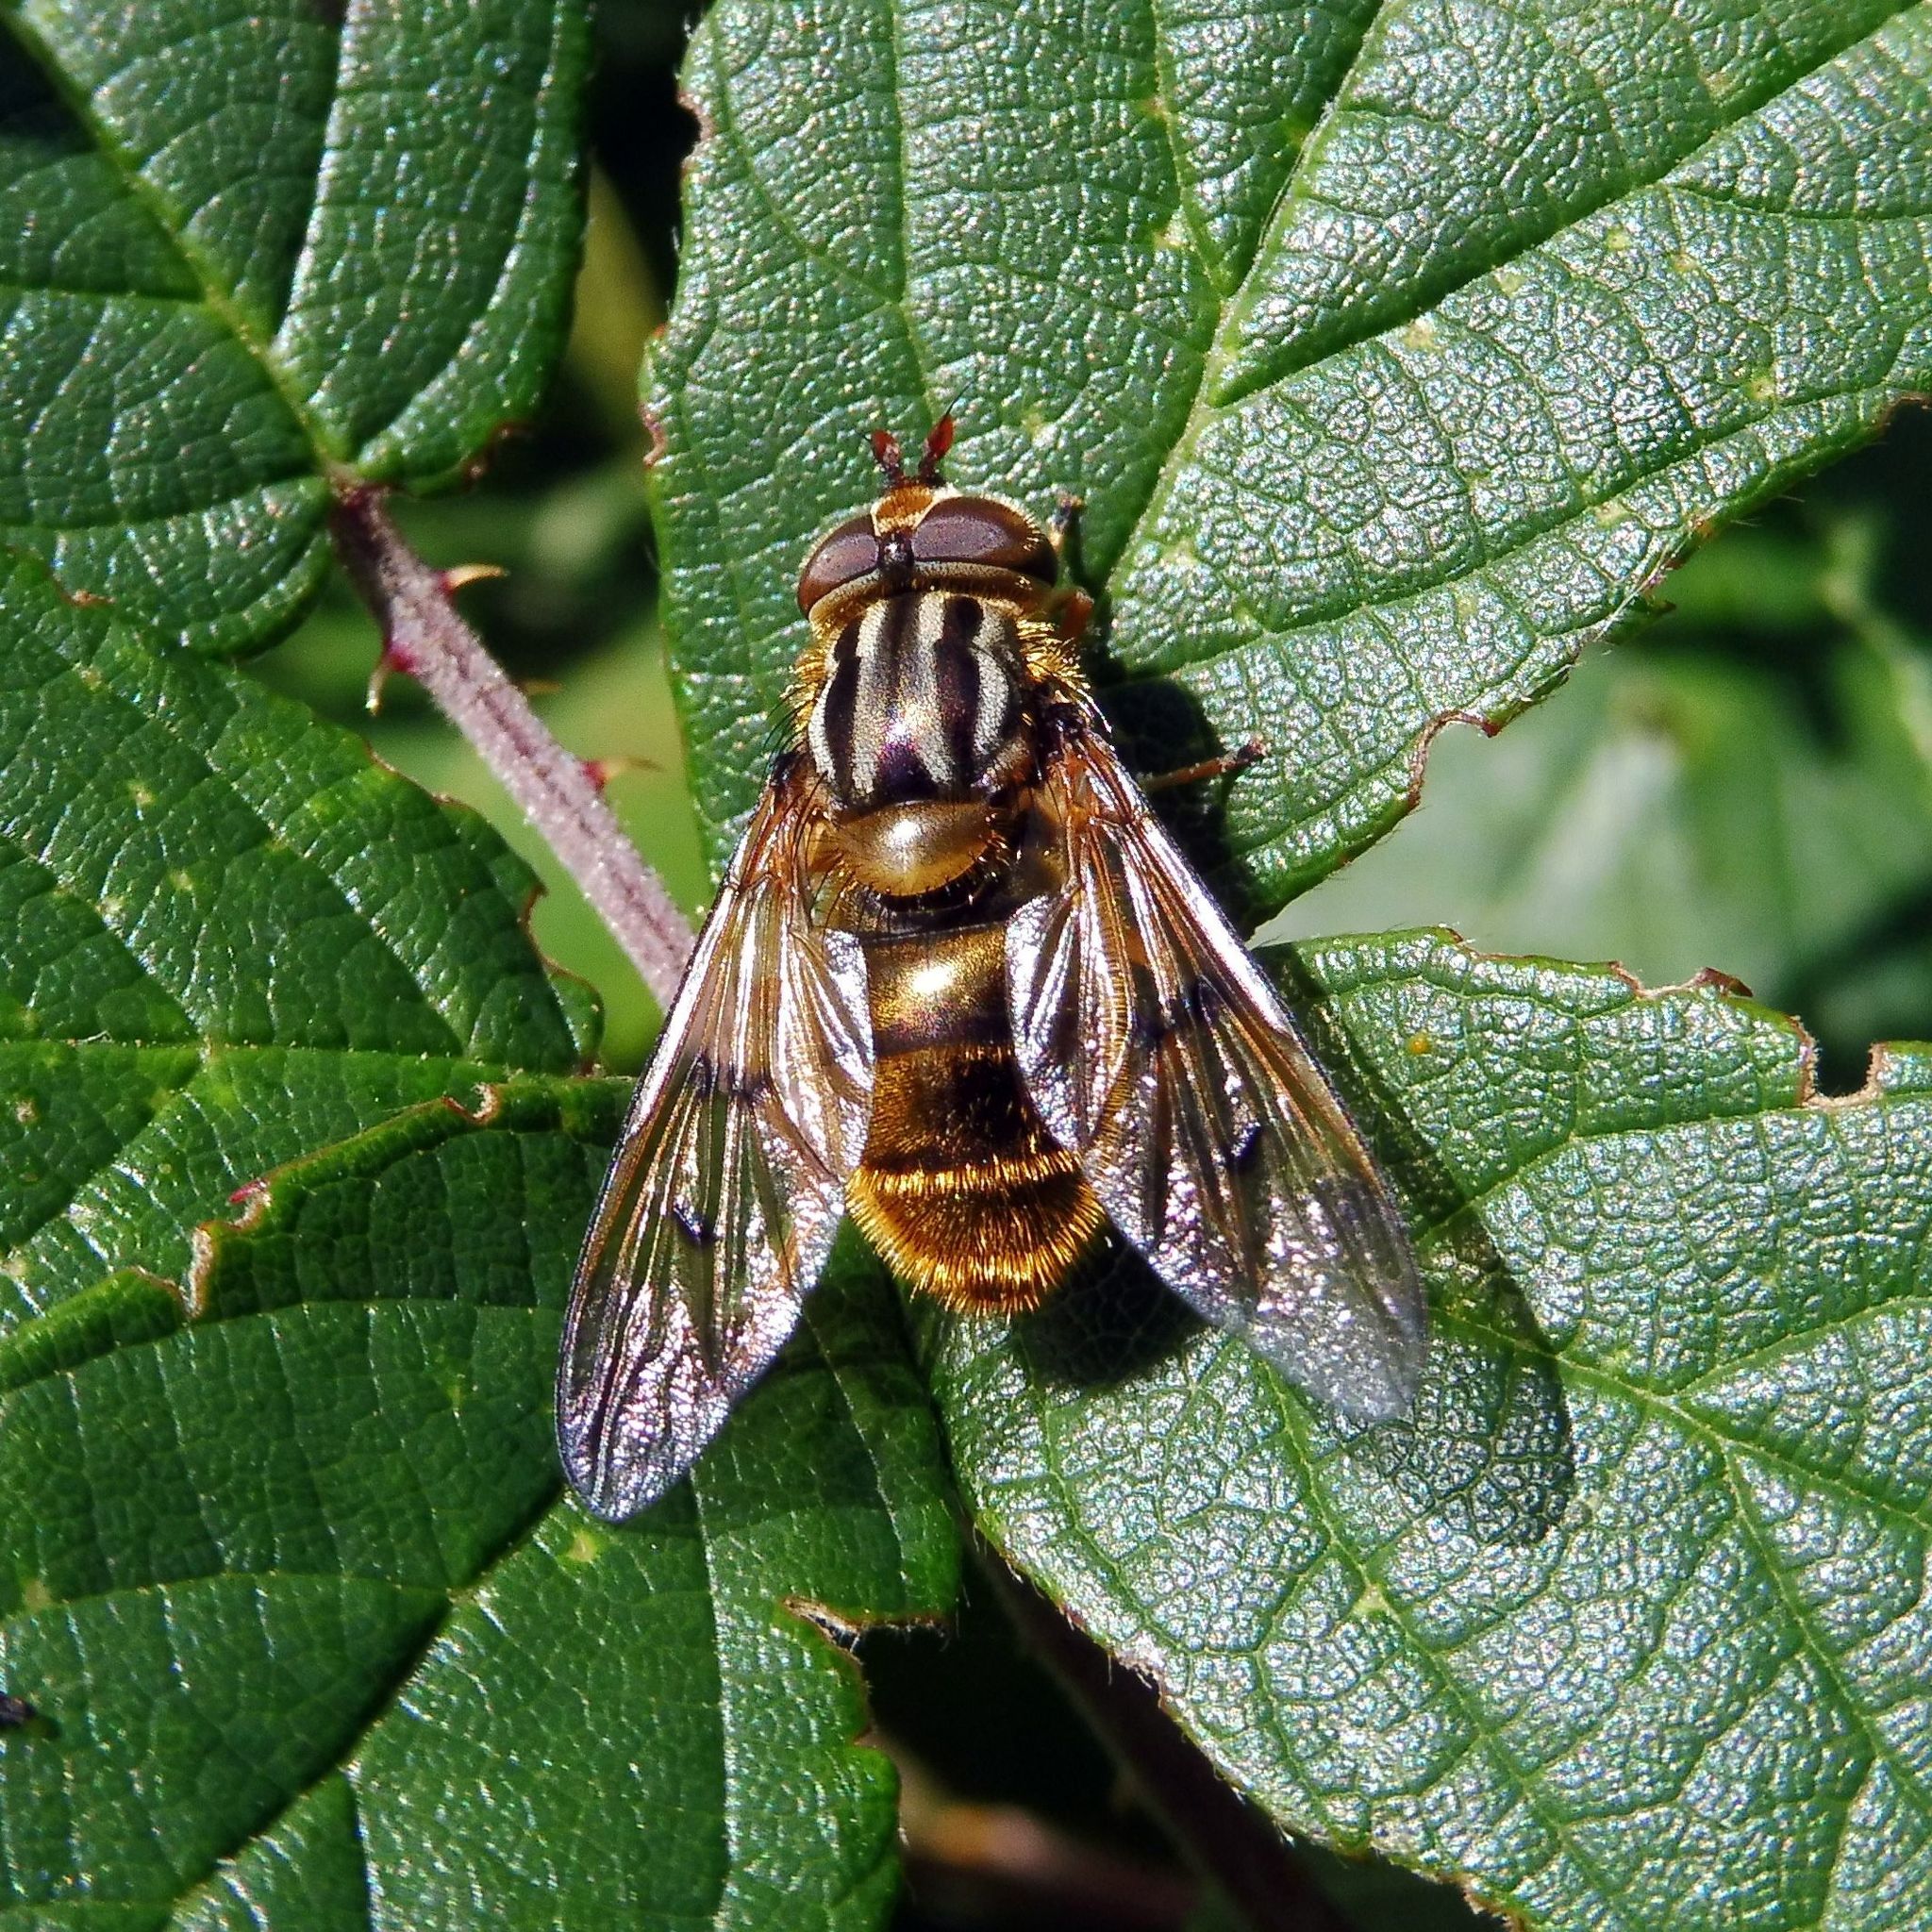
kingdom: Animalia
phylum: Arthropoda
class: Insecta
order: Diptera
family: Syrphidae
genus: Ferdinandea
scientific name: Ferdinandea cuprea
